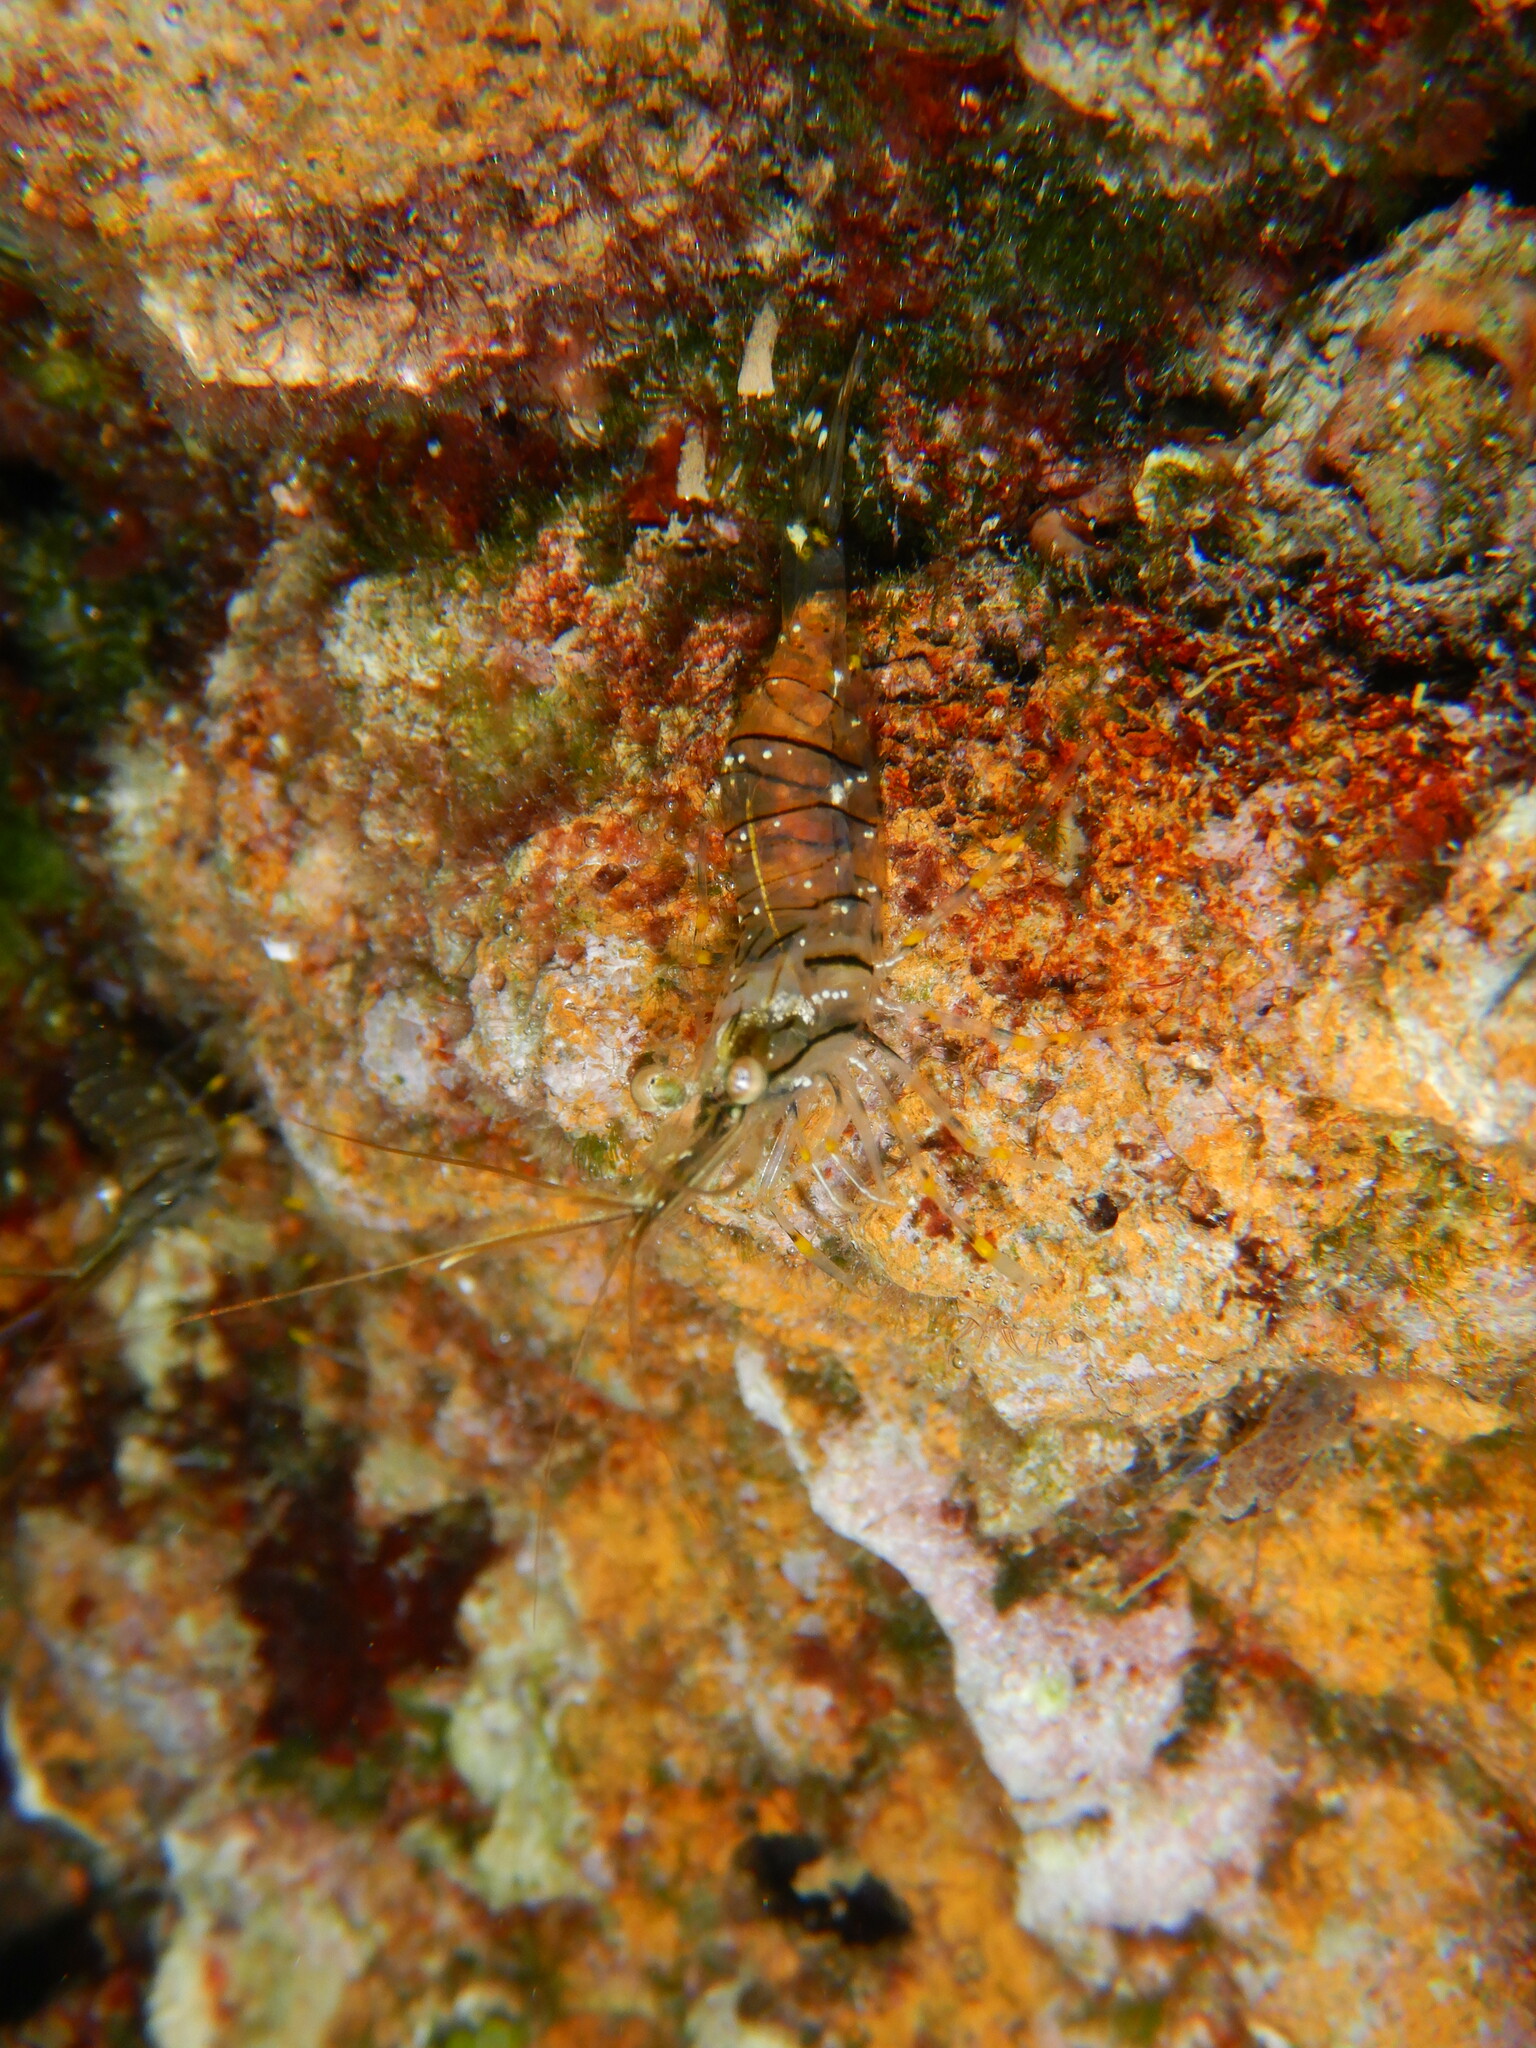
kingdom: Animalia
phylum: Arthropoda
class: Malacostraca
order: Decapoda
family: Palaemonidae
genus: Palaemon
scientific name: Palaemon elegans
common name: Grass prawm
